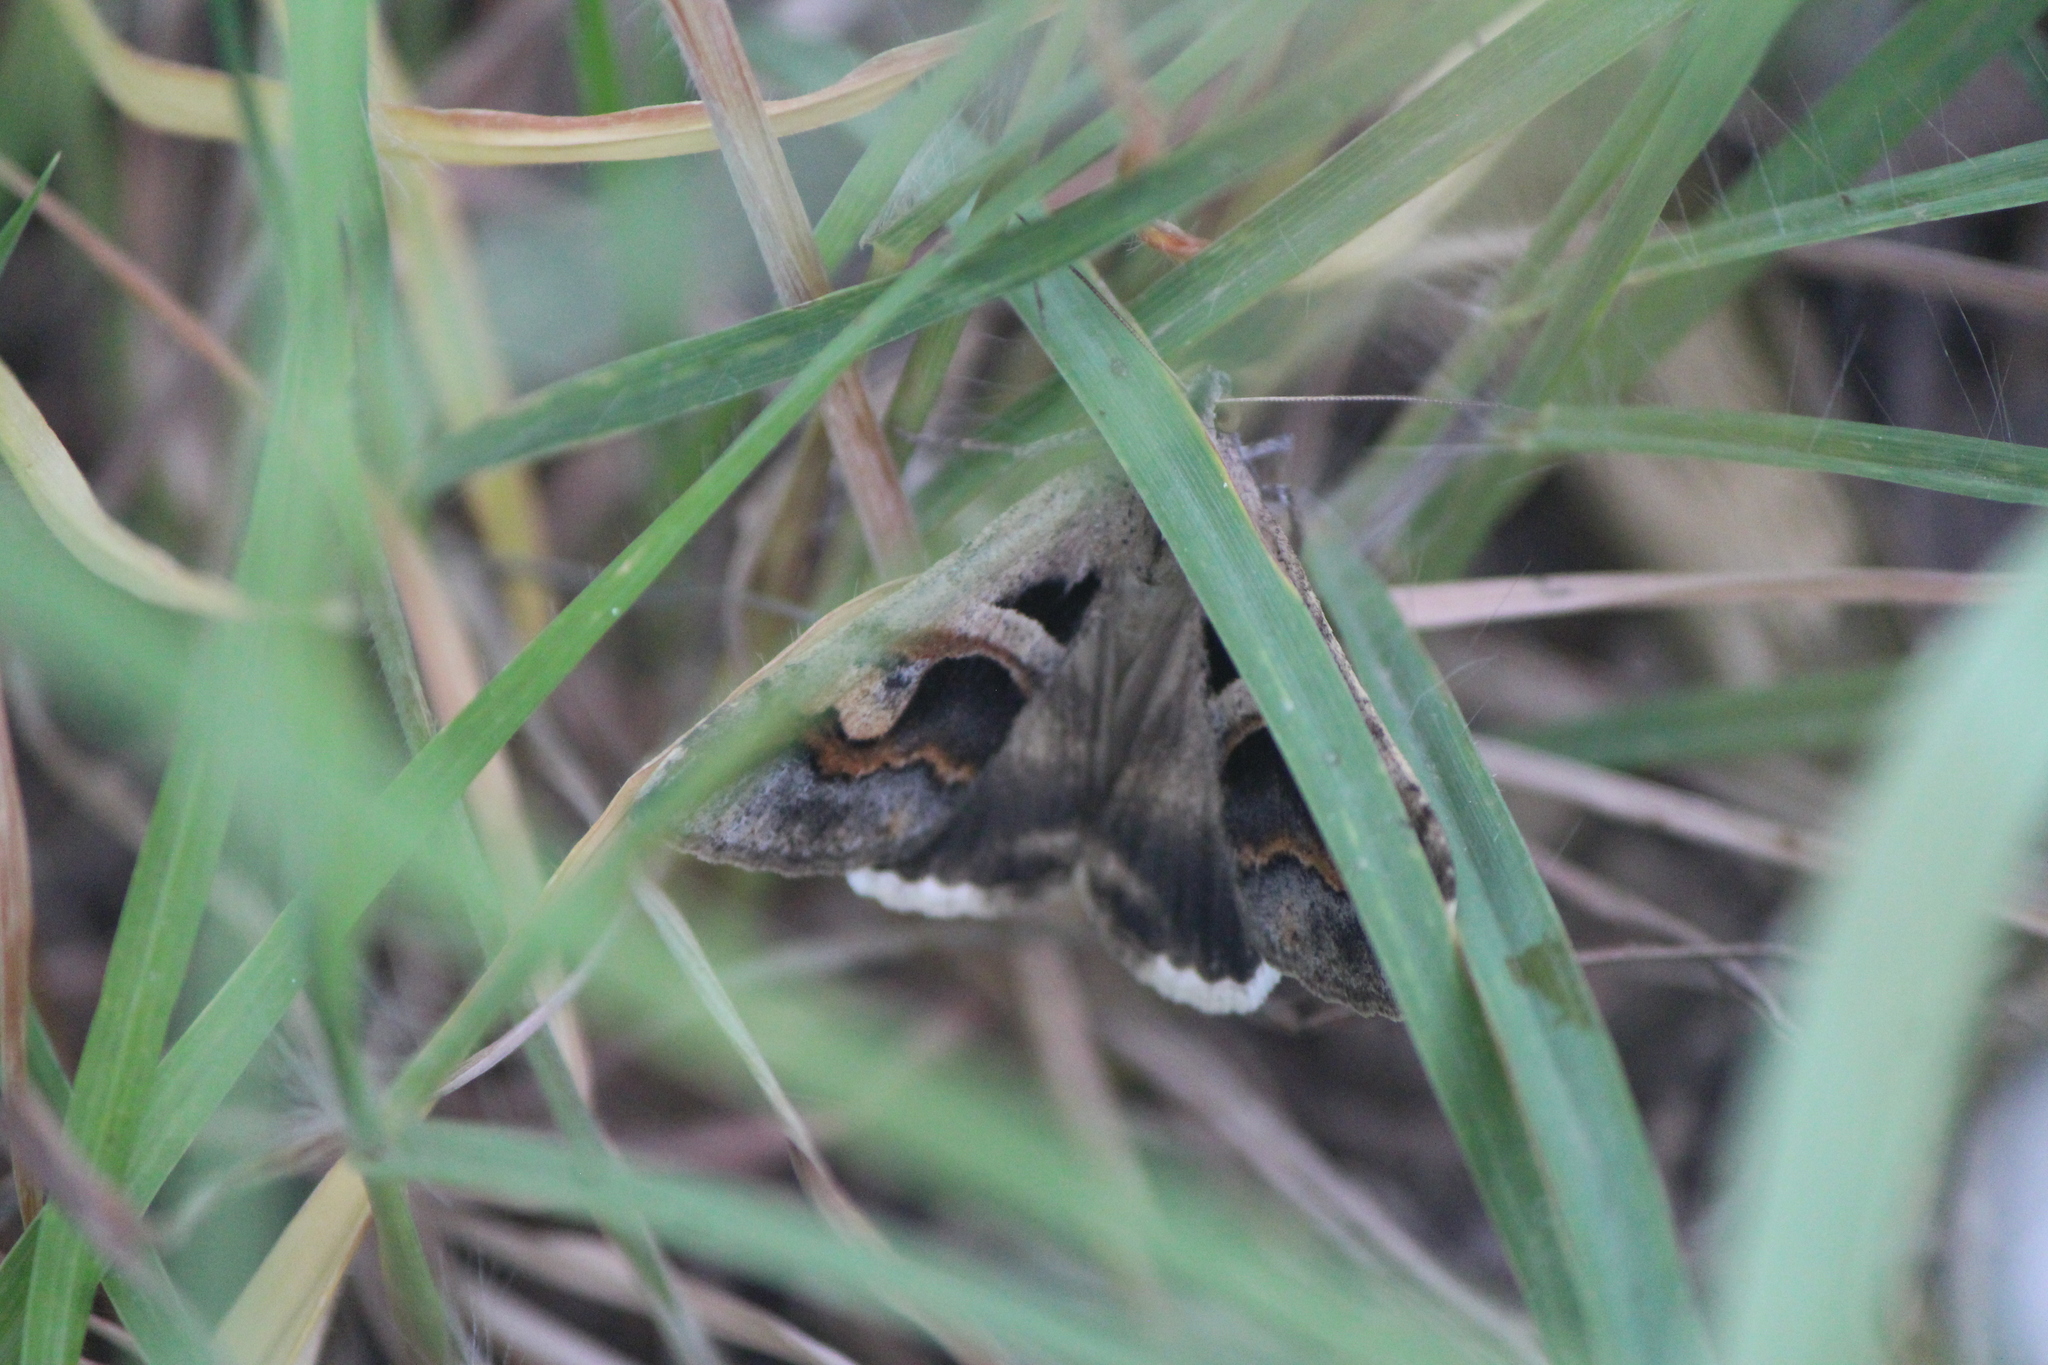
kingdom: Animalia
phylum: Arthropoda
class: Insecta
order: Lepidoptera
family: Erebidae
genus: Melipotis
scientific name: Melipotis cellaris
